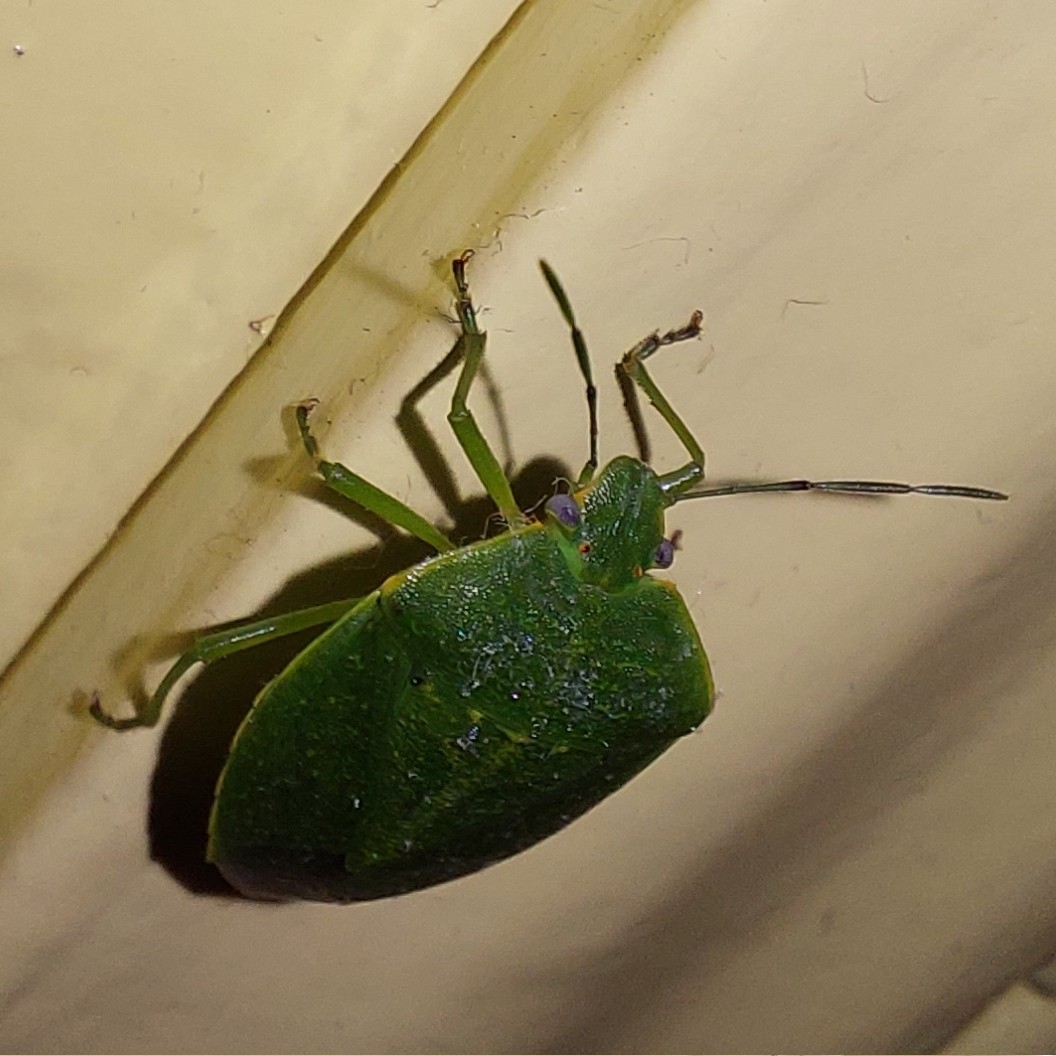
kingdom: Animalia
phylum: Arthropoda
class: Insecta
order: Hemiptera
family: Pentatomidae
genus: Nezara
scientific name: Nezara viridula
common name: Southern green stink bug
